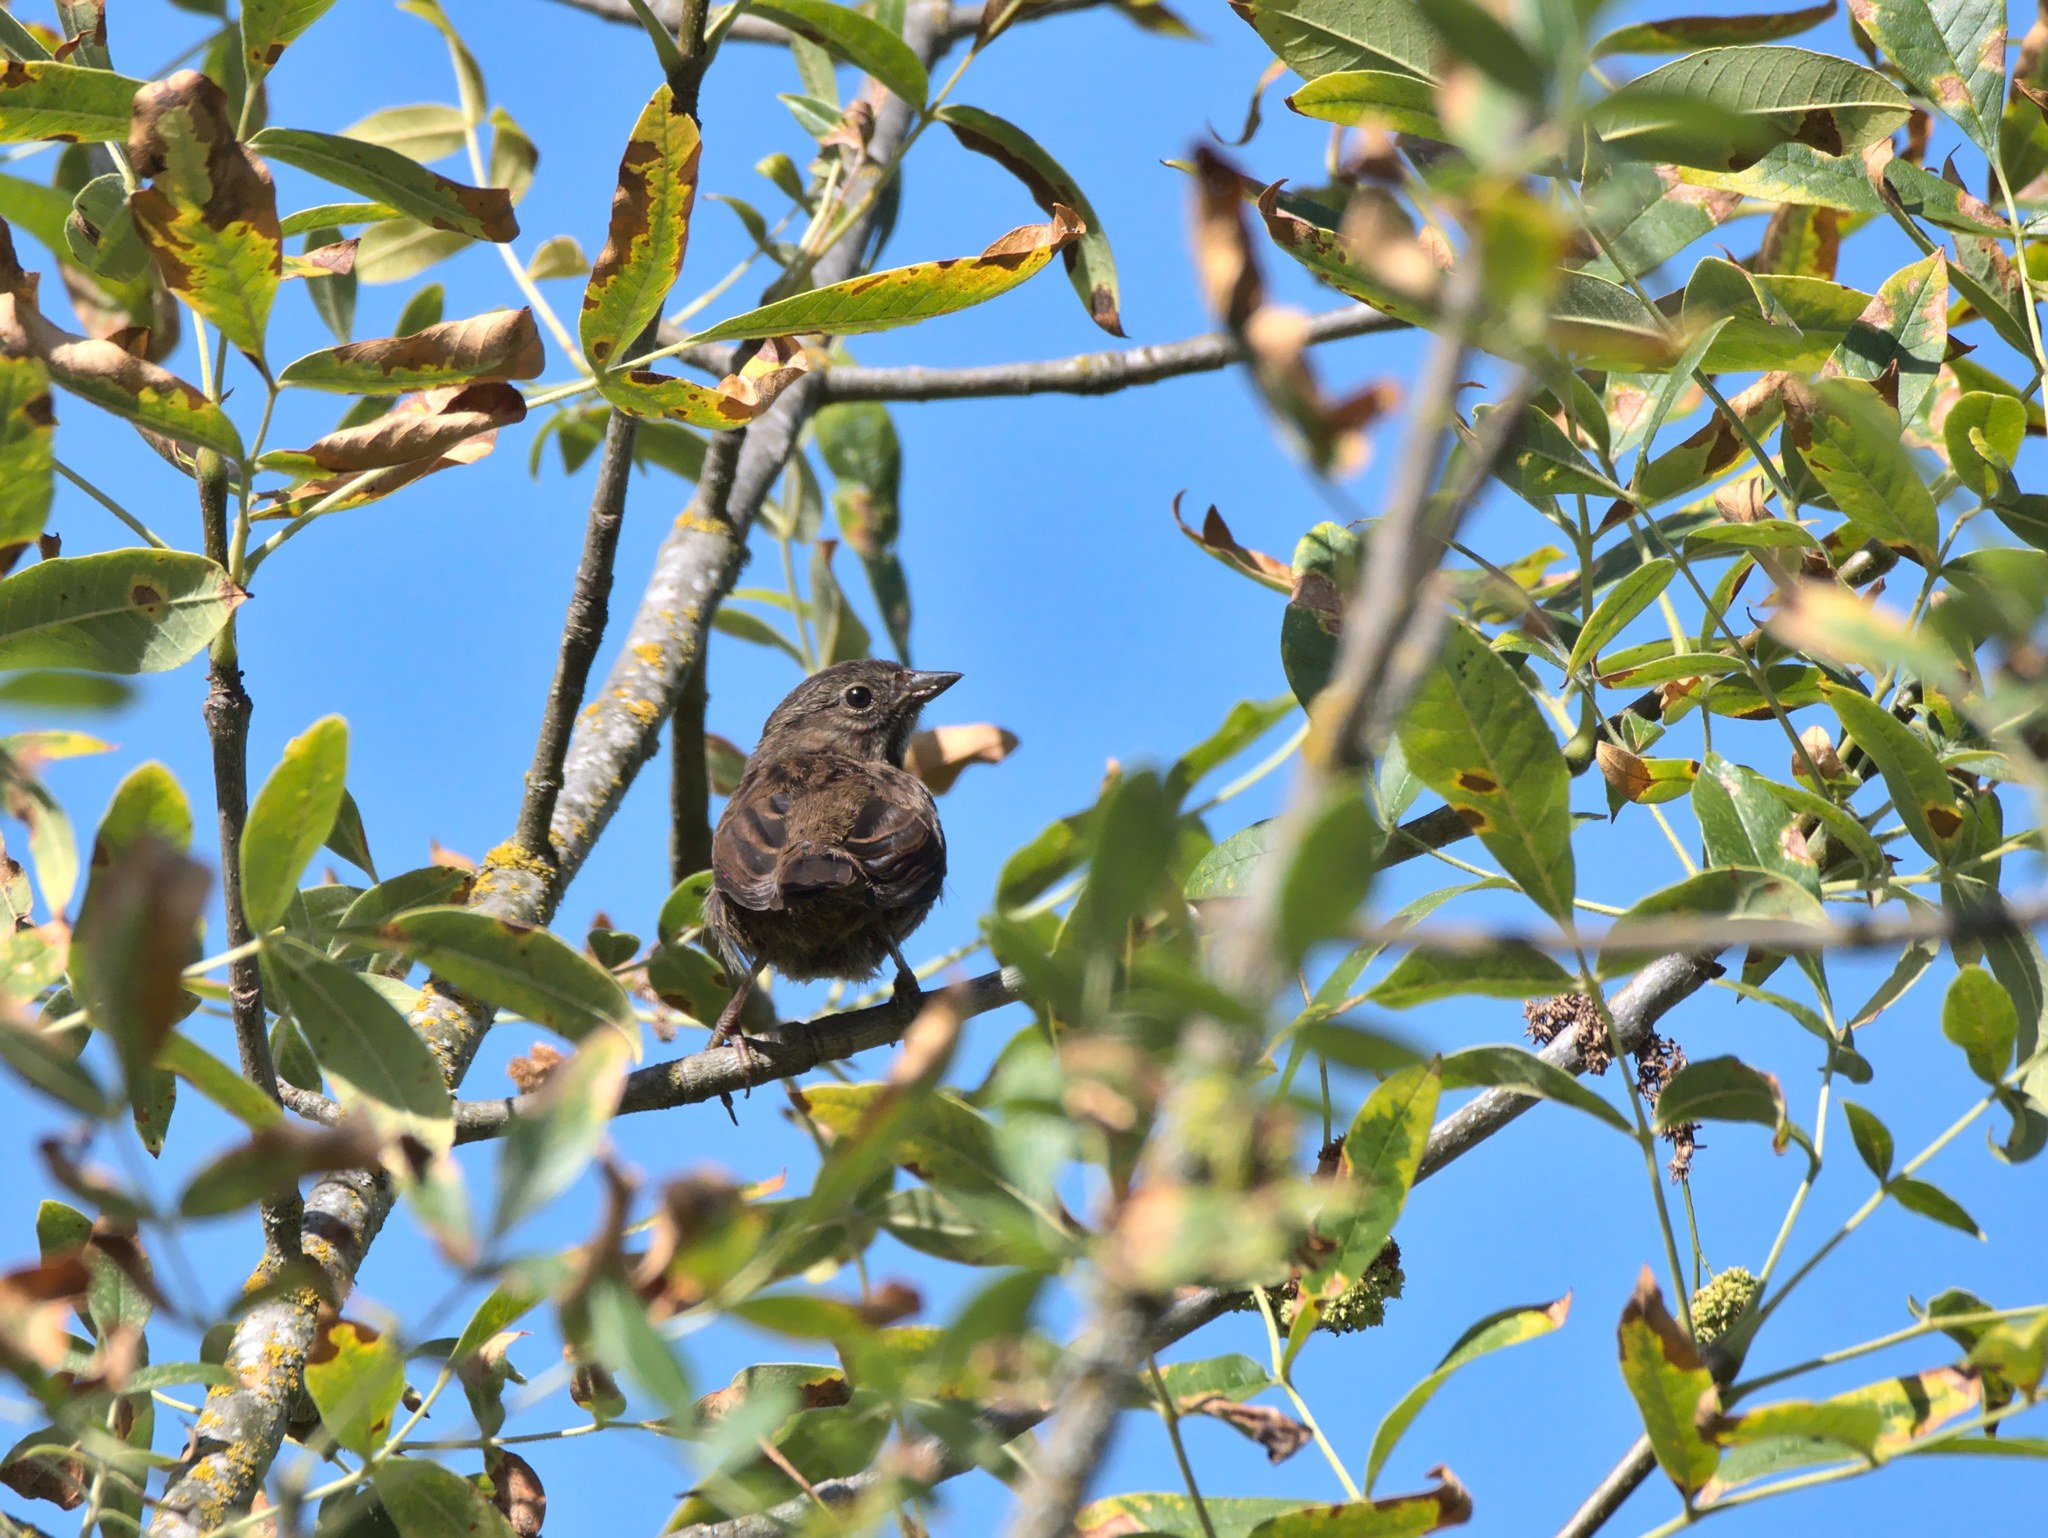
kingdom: Animalia
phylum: Chordata
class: Aves
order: Passeriformes
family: Passerellidae
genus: Melospiza
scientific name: Melospiza melodia
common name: Song sparrow
